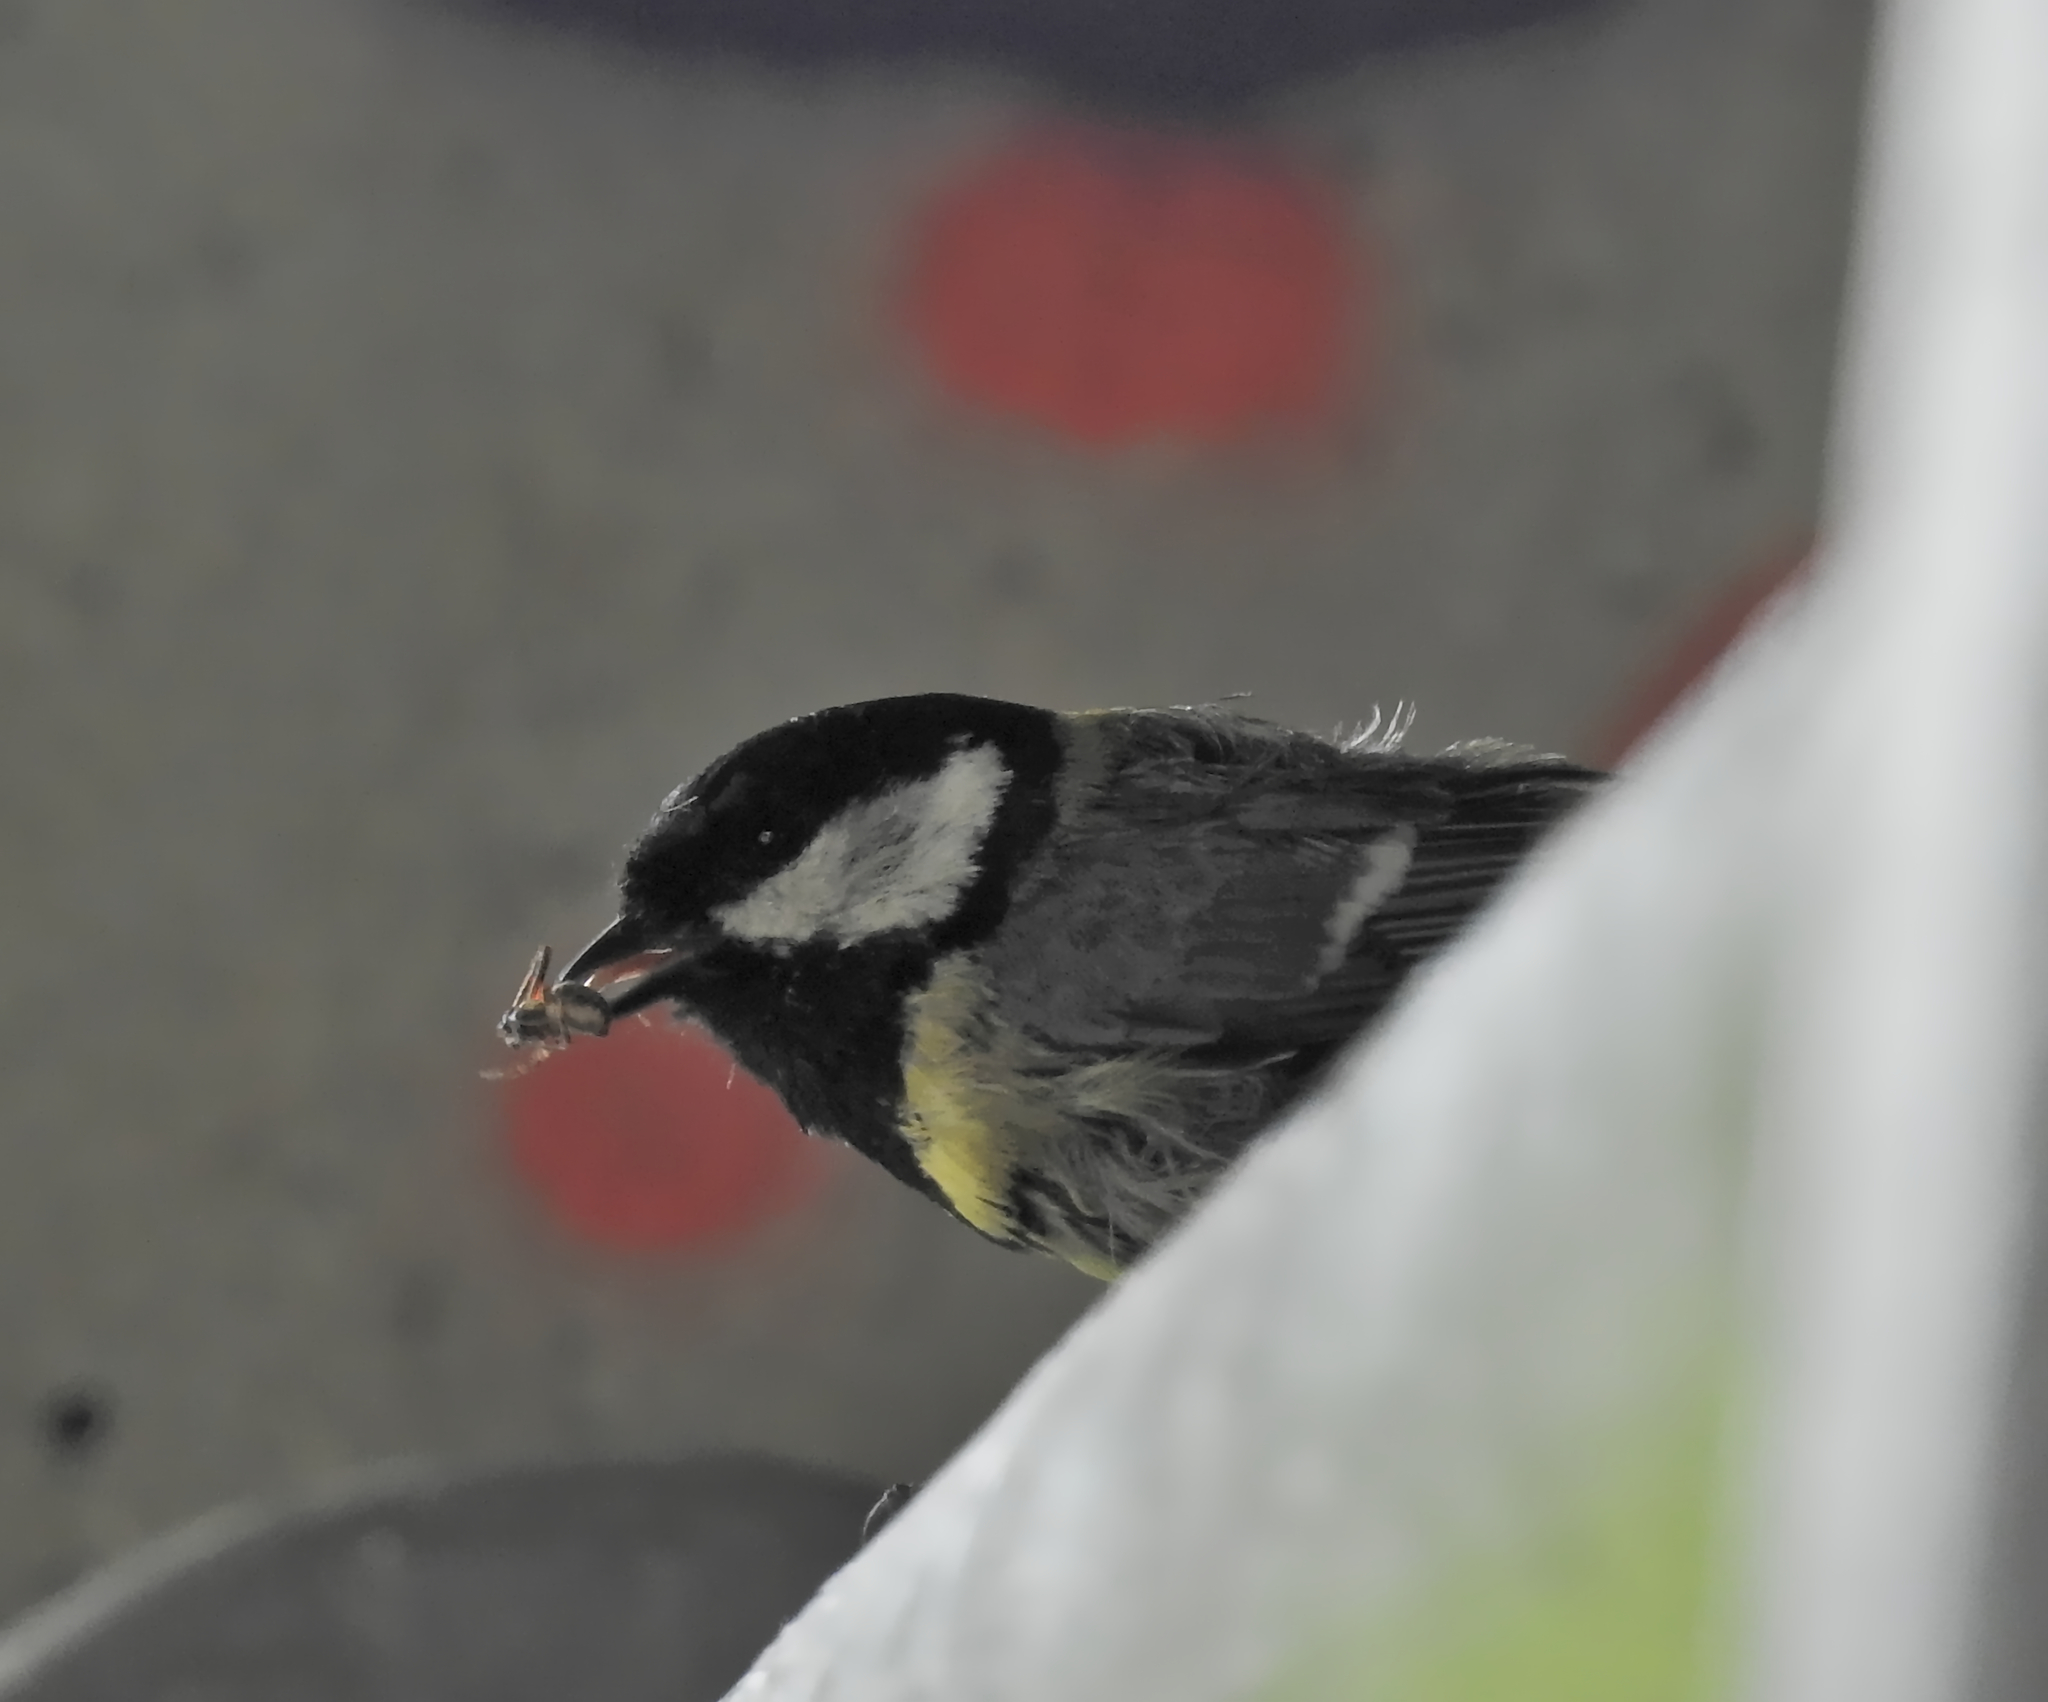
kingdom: Animalia
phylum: Chordata
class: Aves
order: Passeriformes
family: Paridae
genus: Parus
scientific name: Parus major
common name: Great tit
